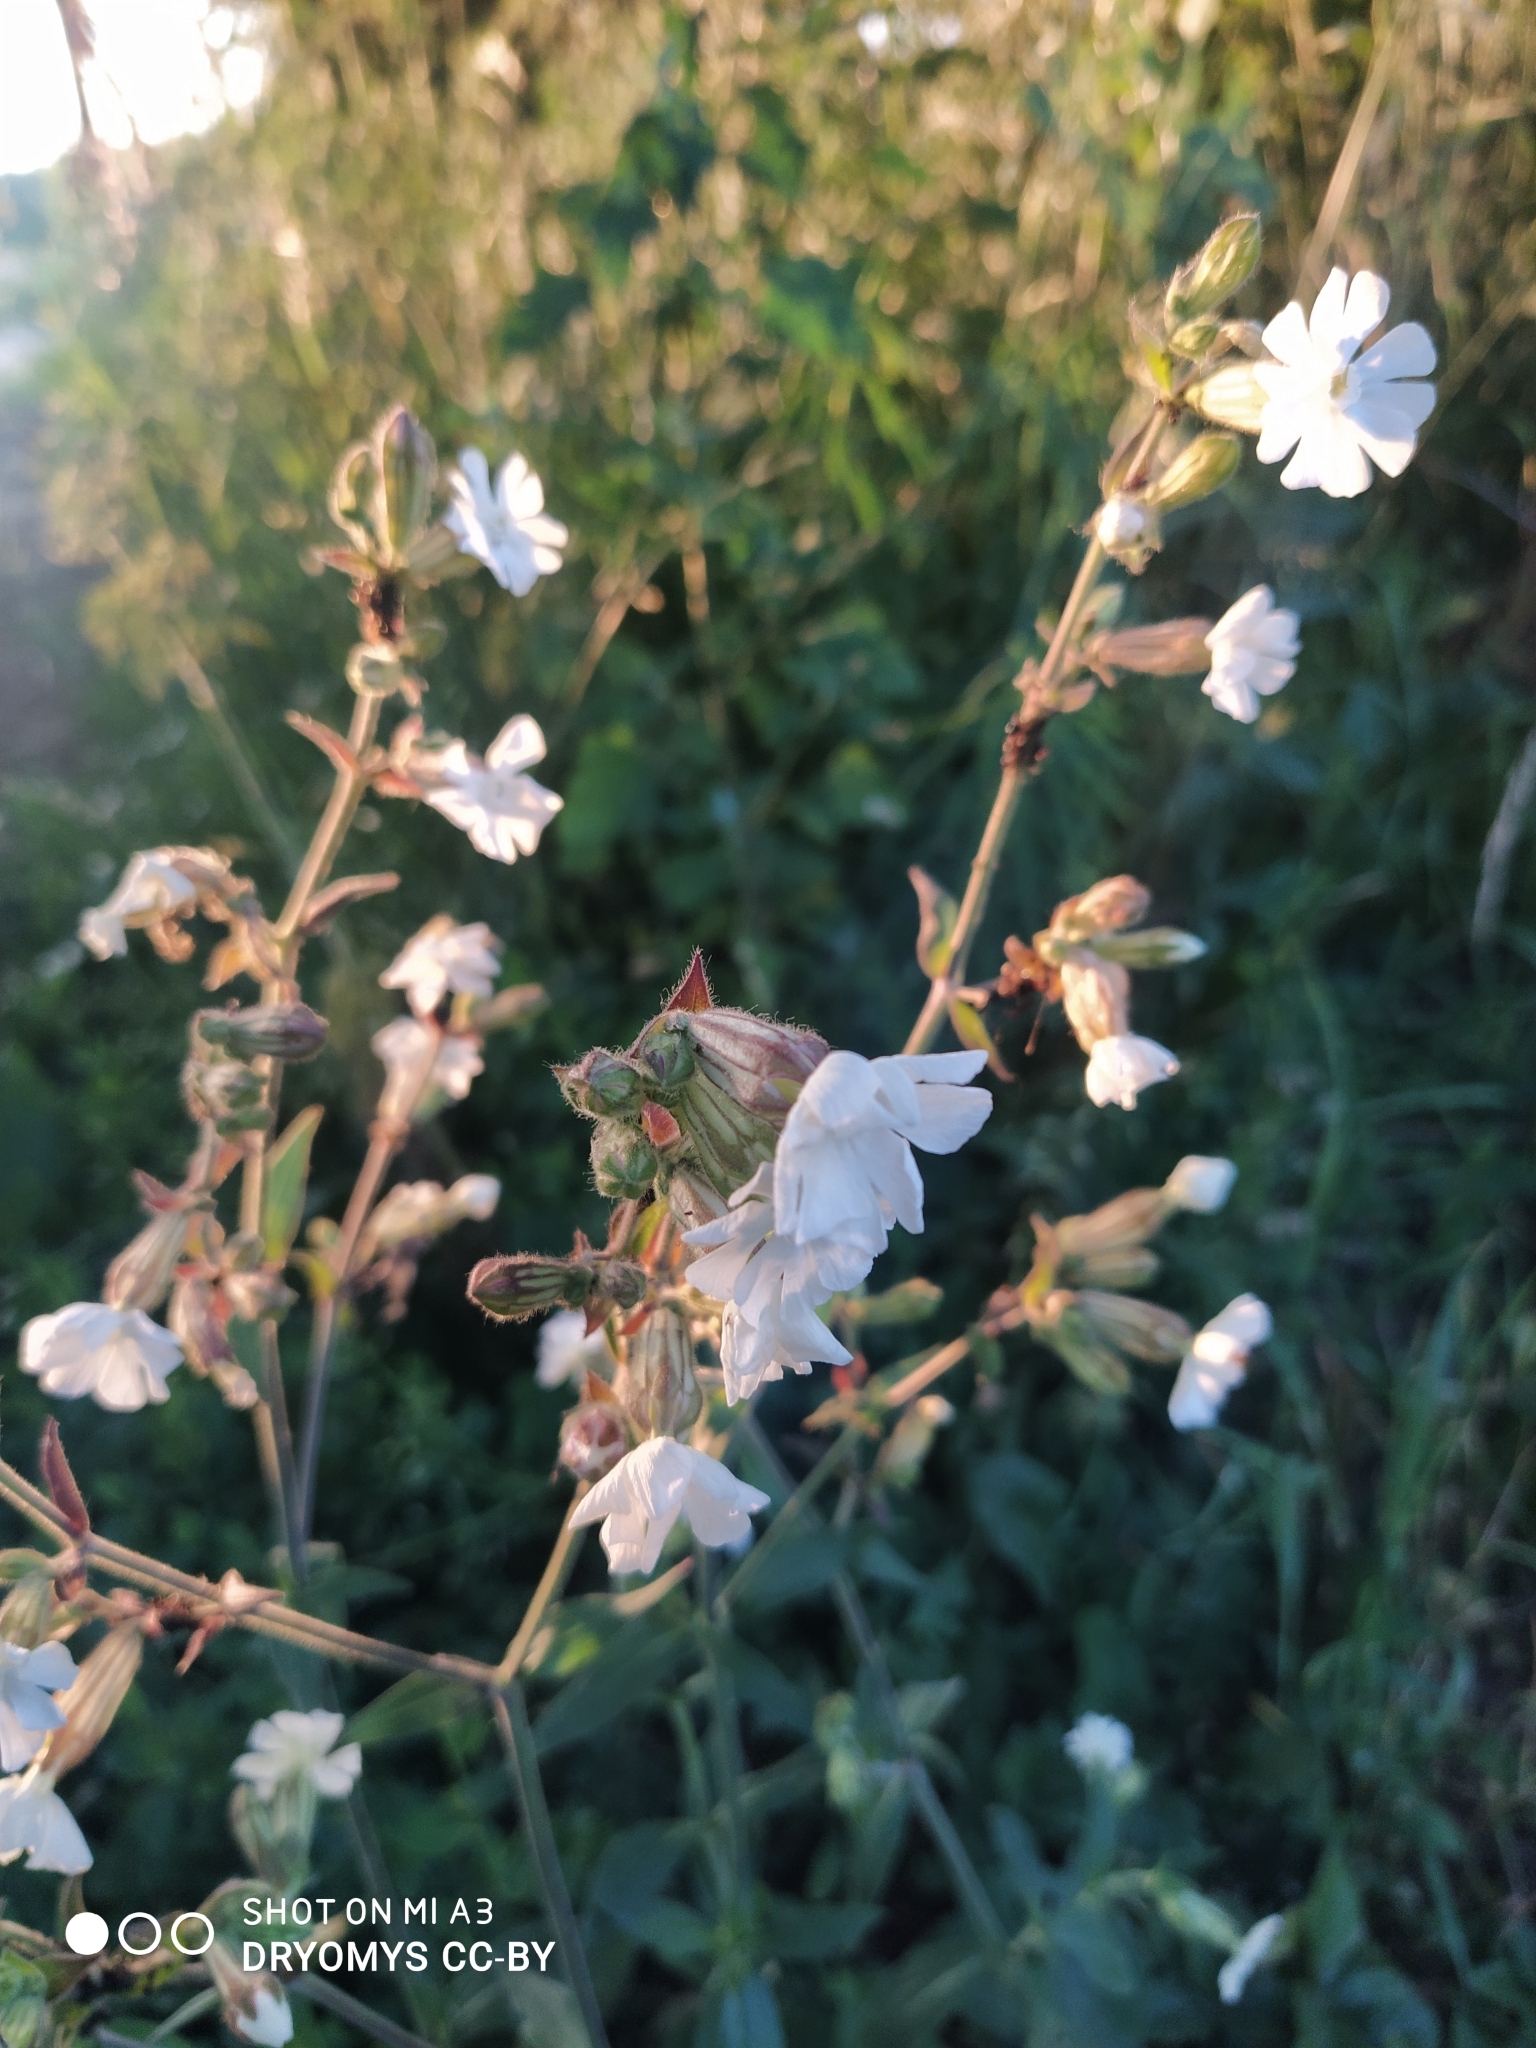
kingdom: Plantae
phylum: Tracheophyta
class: Magnoliopsida
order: Caryophyllales
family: Caryophyllaceae
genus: Silene
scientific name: Silene latifolia
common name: White campion
